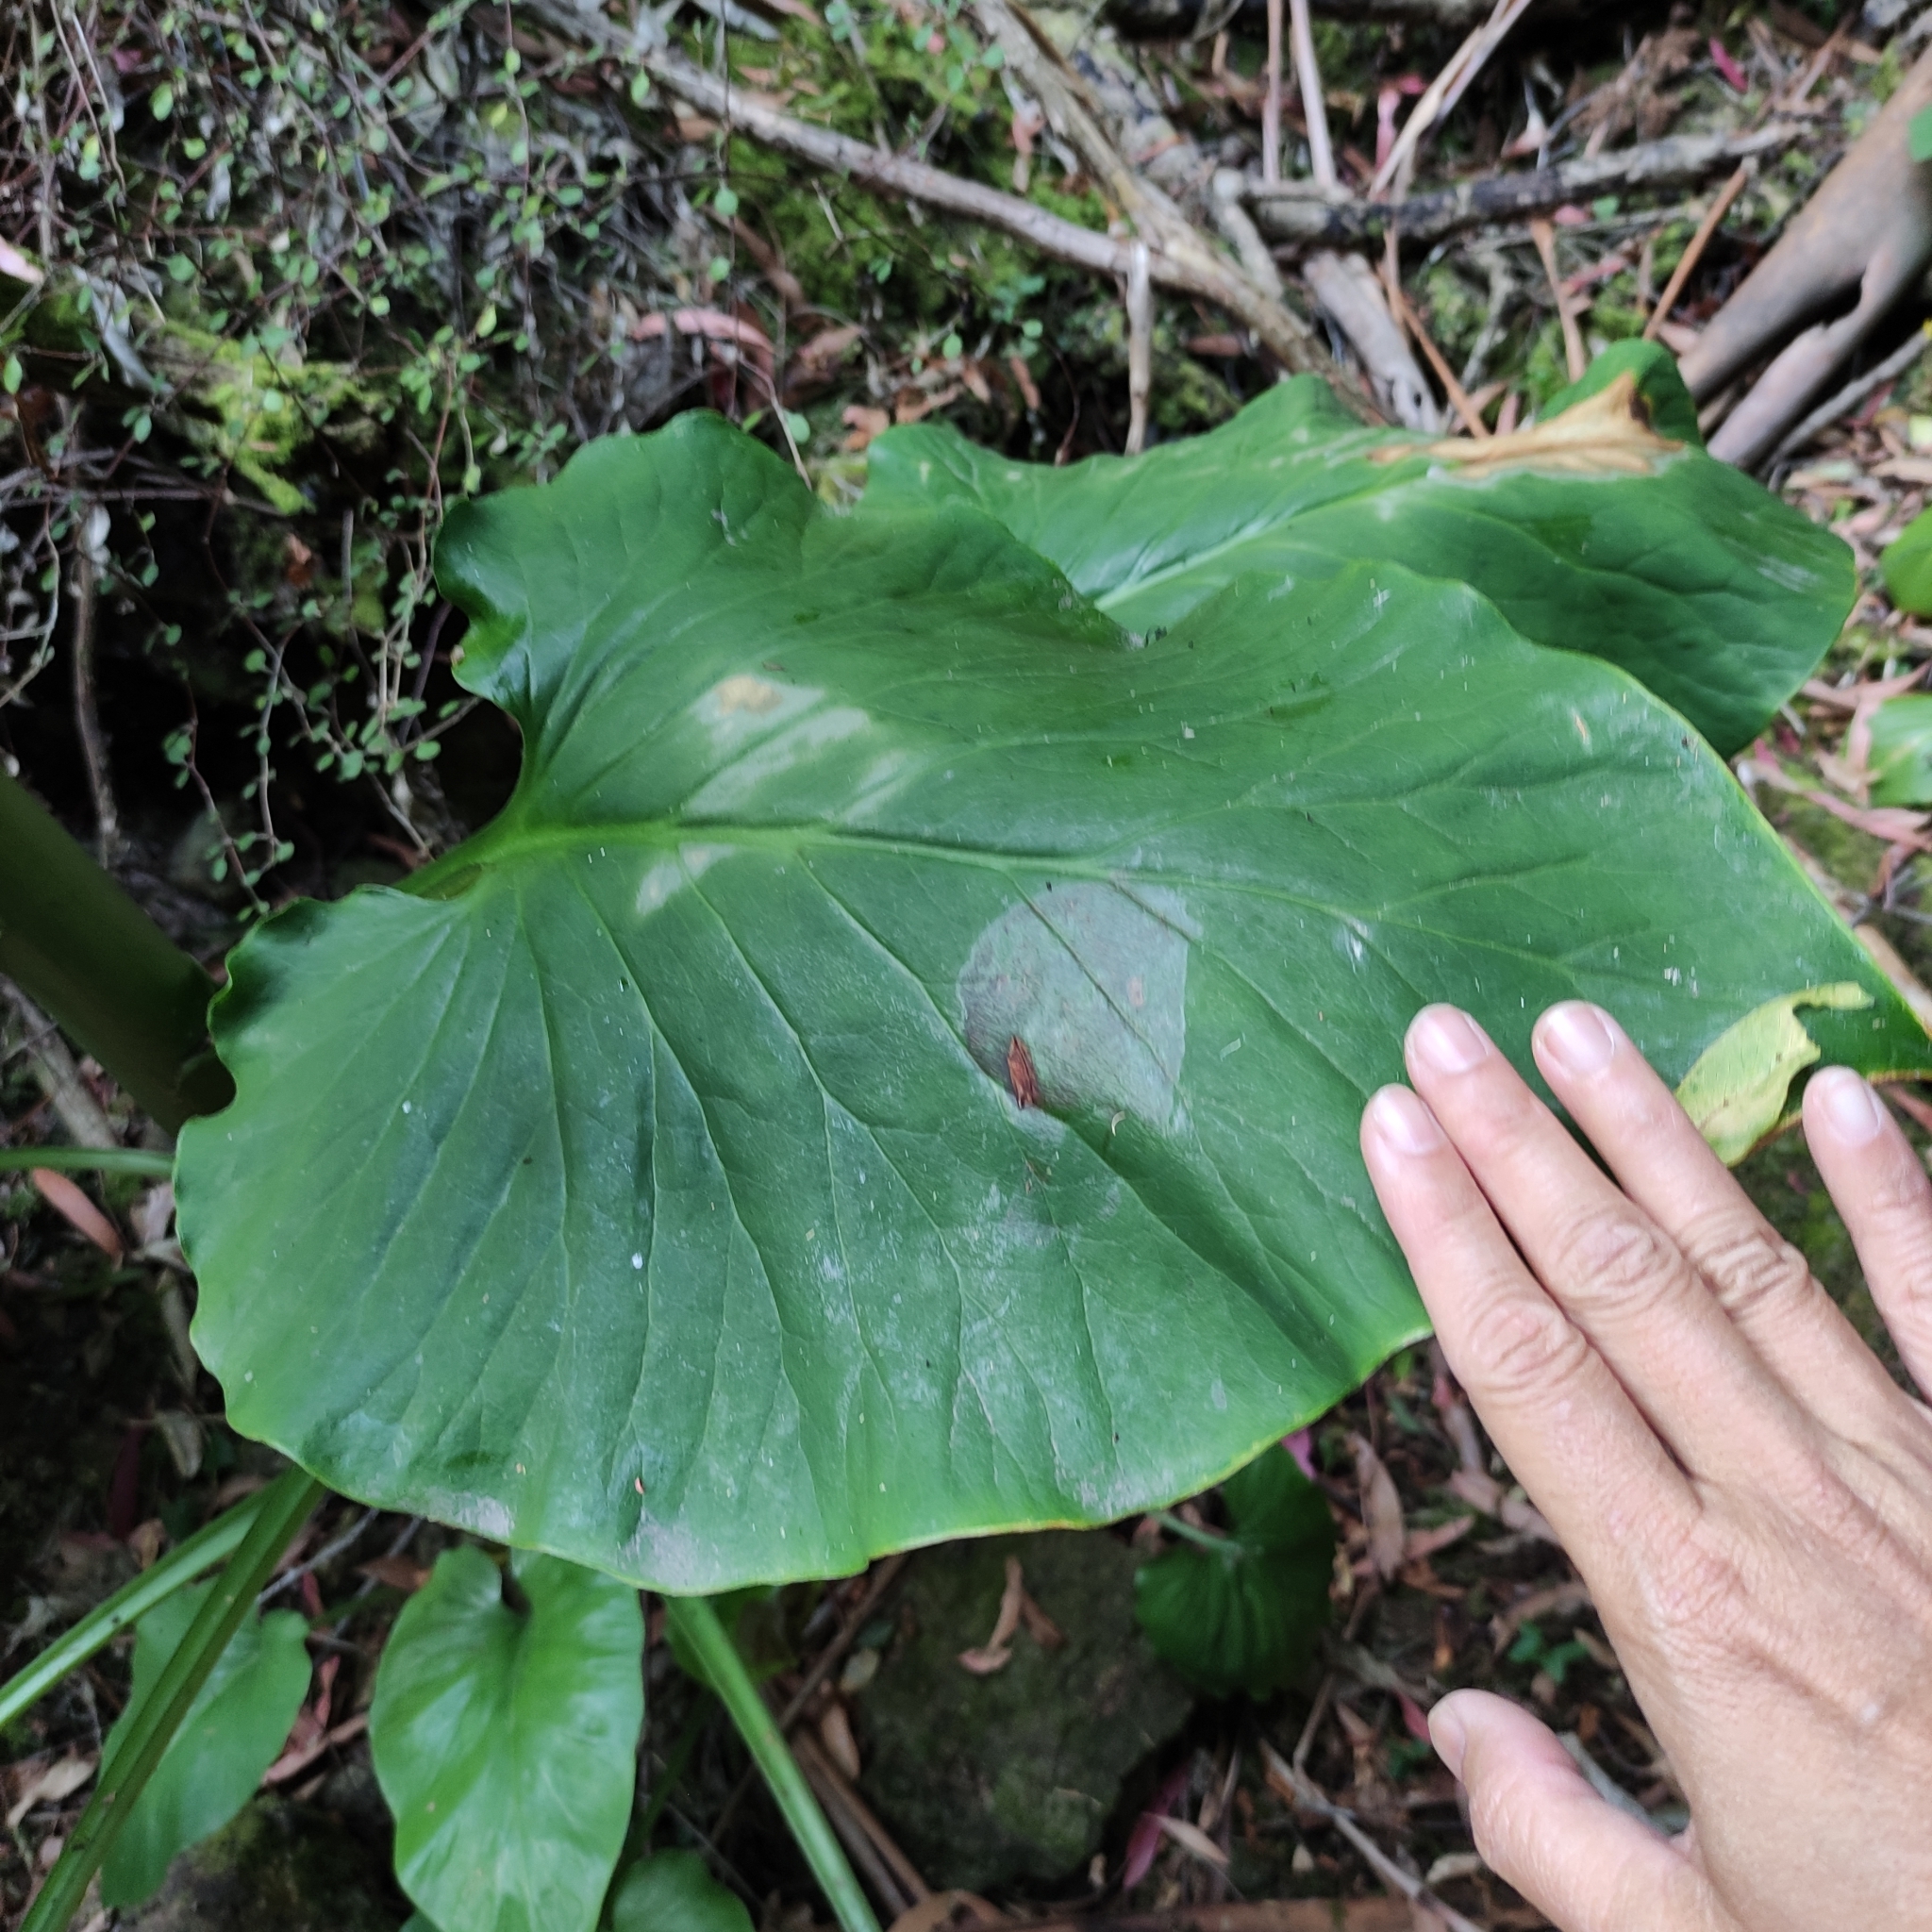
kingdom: Plantae
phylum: Tracheophyta
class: Liliopsida
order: Liliales
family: Liliaceae
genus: Cardiocrinum
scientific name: Cardiocrinum giganteum
